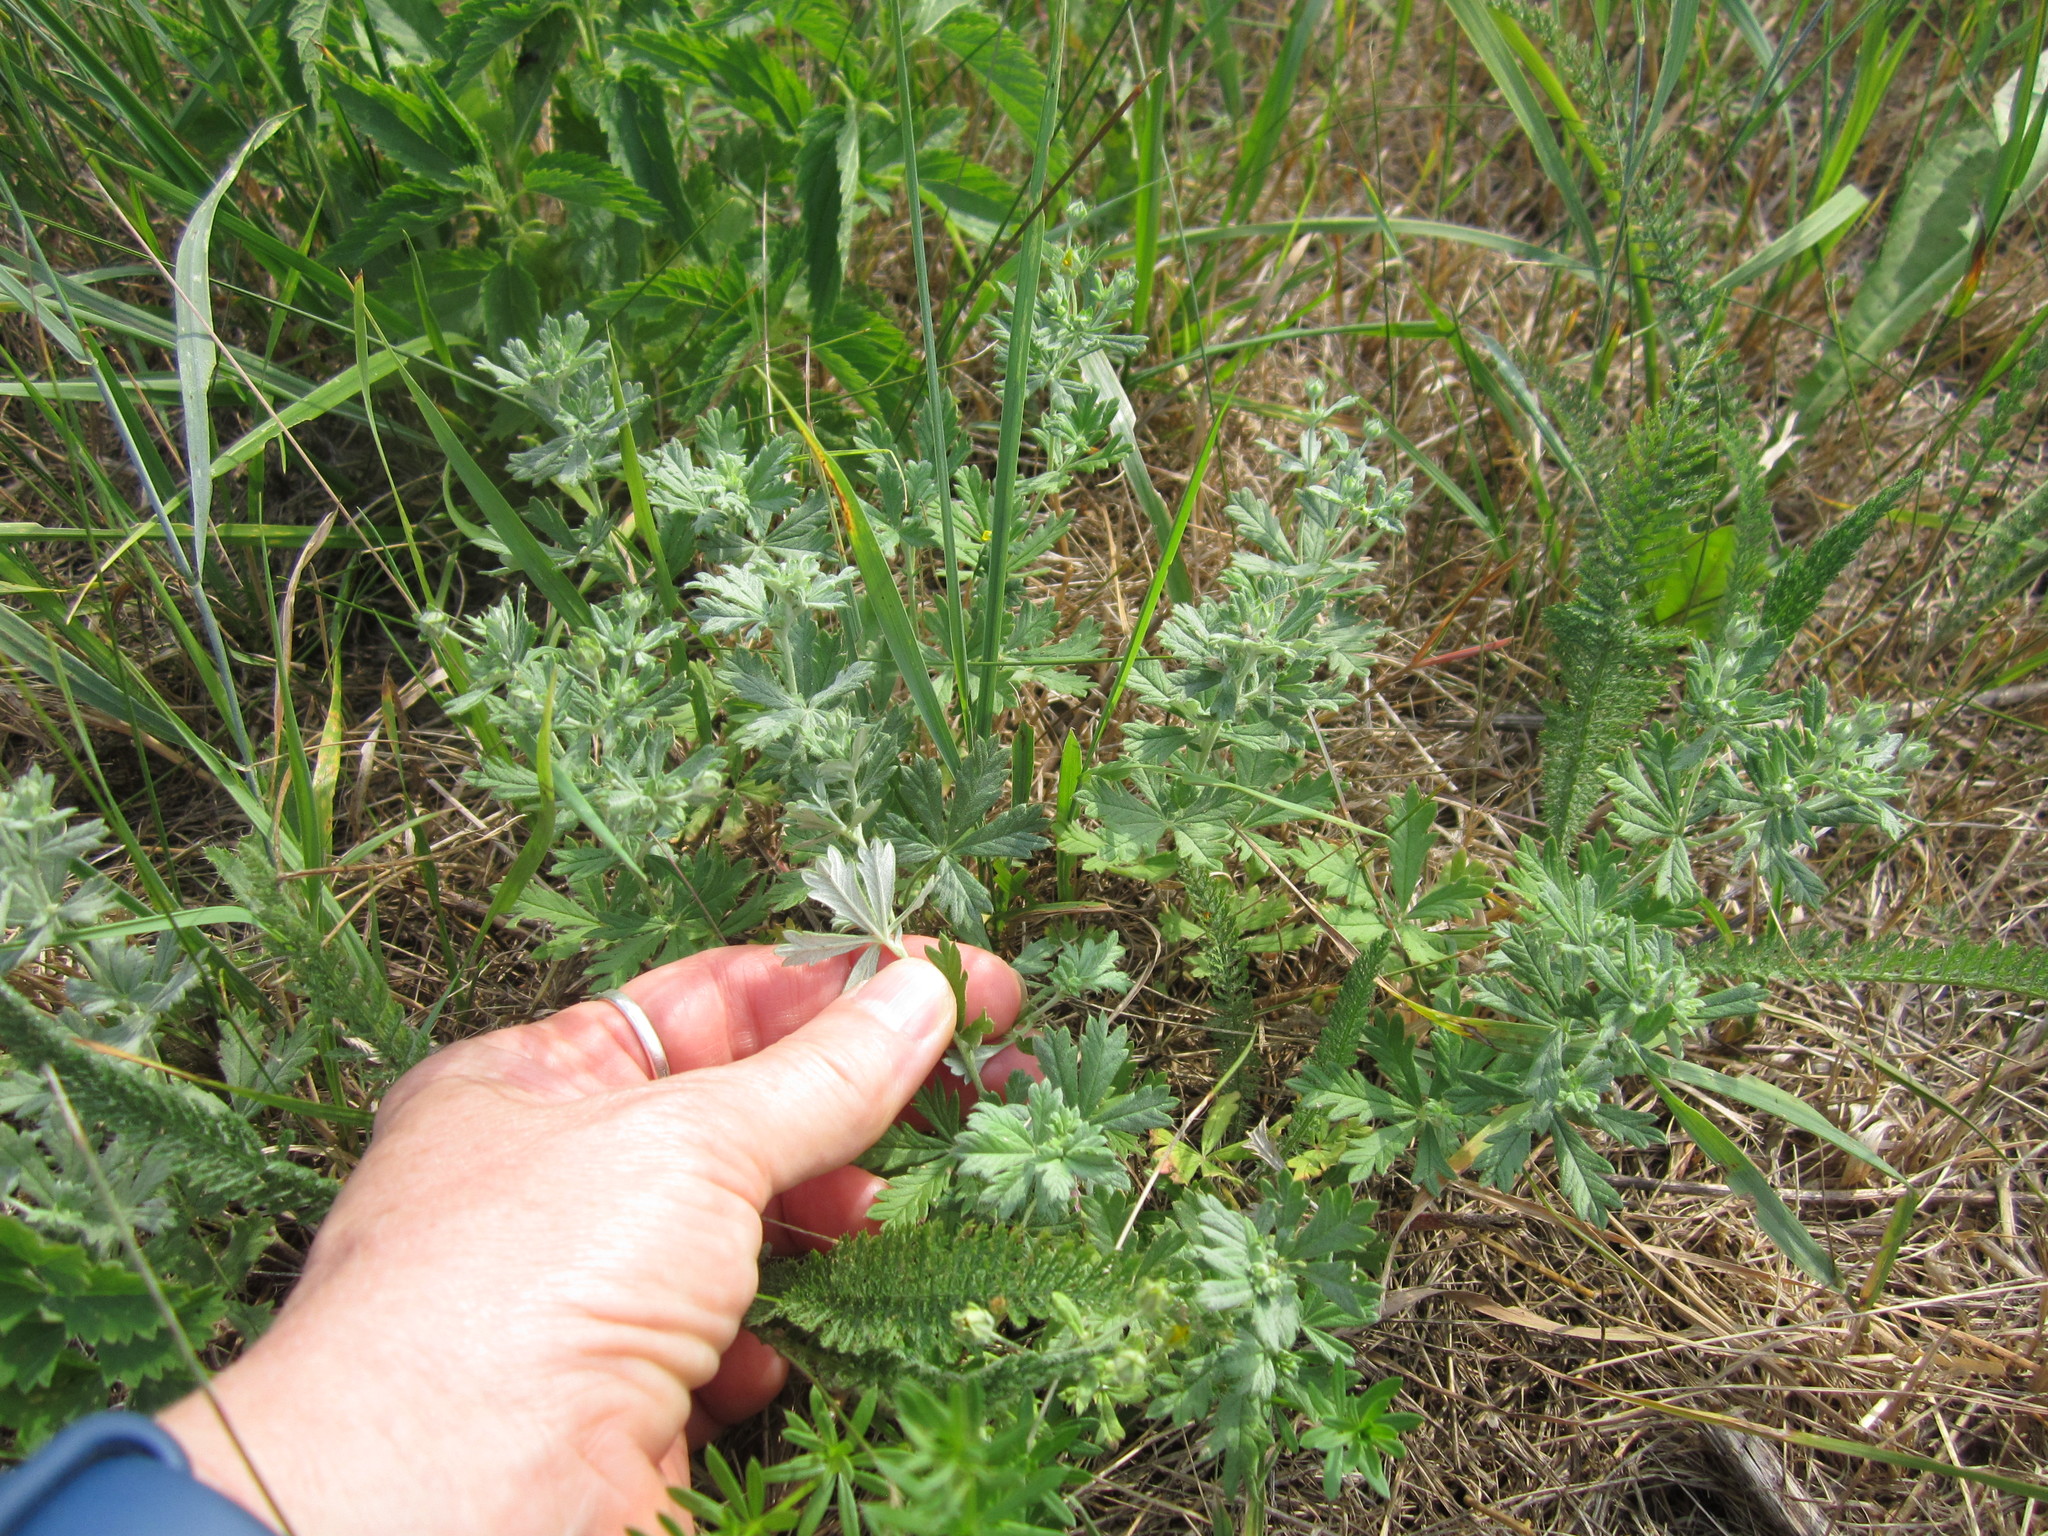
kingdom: Plantae
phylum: Tracheophyta
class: Magnoliopsida
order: Rosales
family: Rosaceae
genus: Potentilla
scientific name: Potentilla argentea
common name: Hoary cinquefoil
